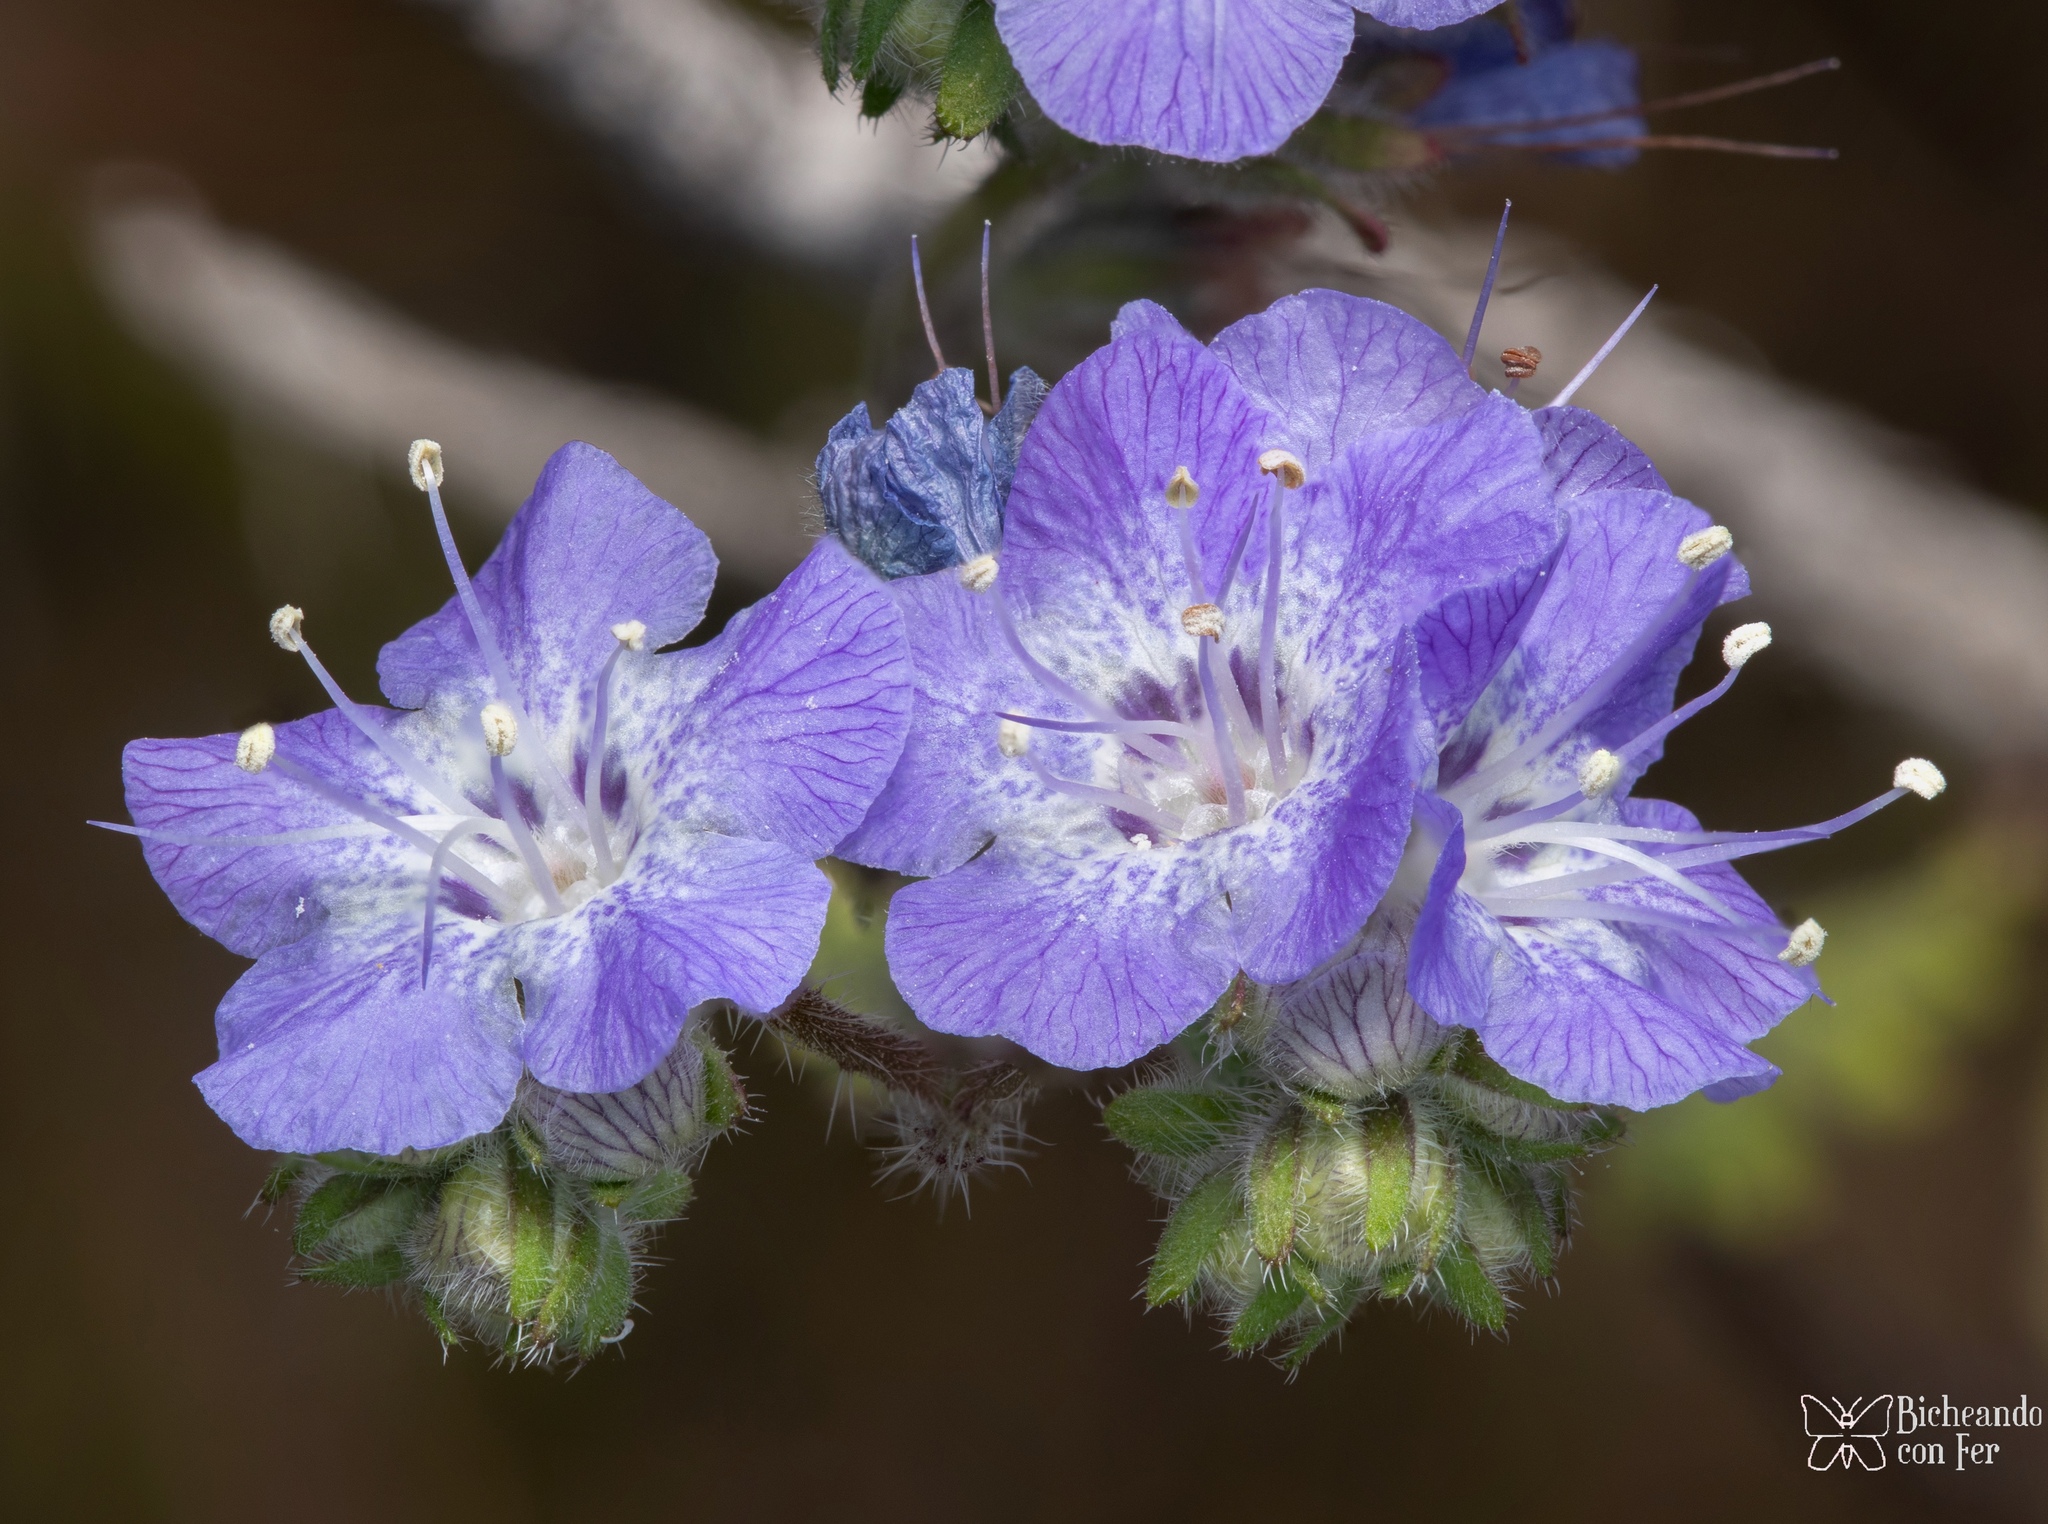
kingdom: Plantae
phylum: Tracheophyta
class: Magnoliopsida
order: Boraginales
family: Hydrophyllaceae
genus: Phacelia
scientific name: Phacelia distans
